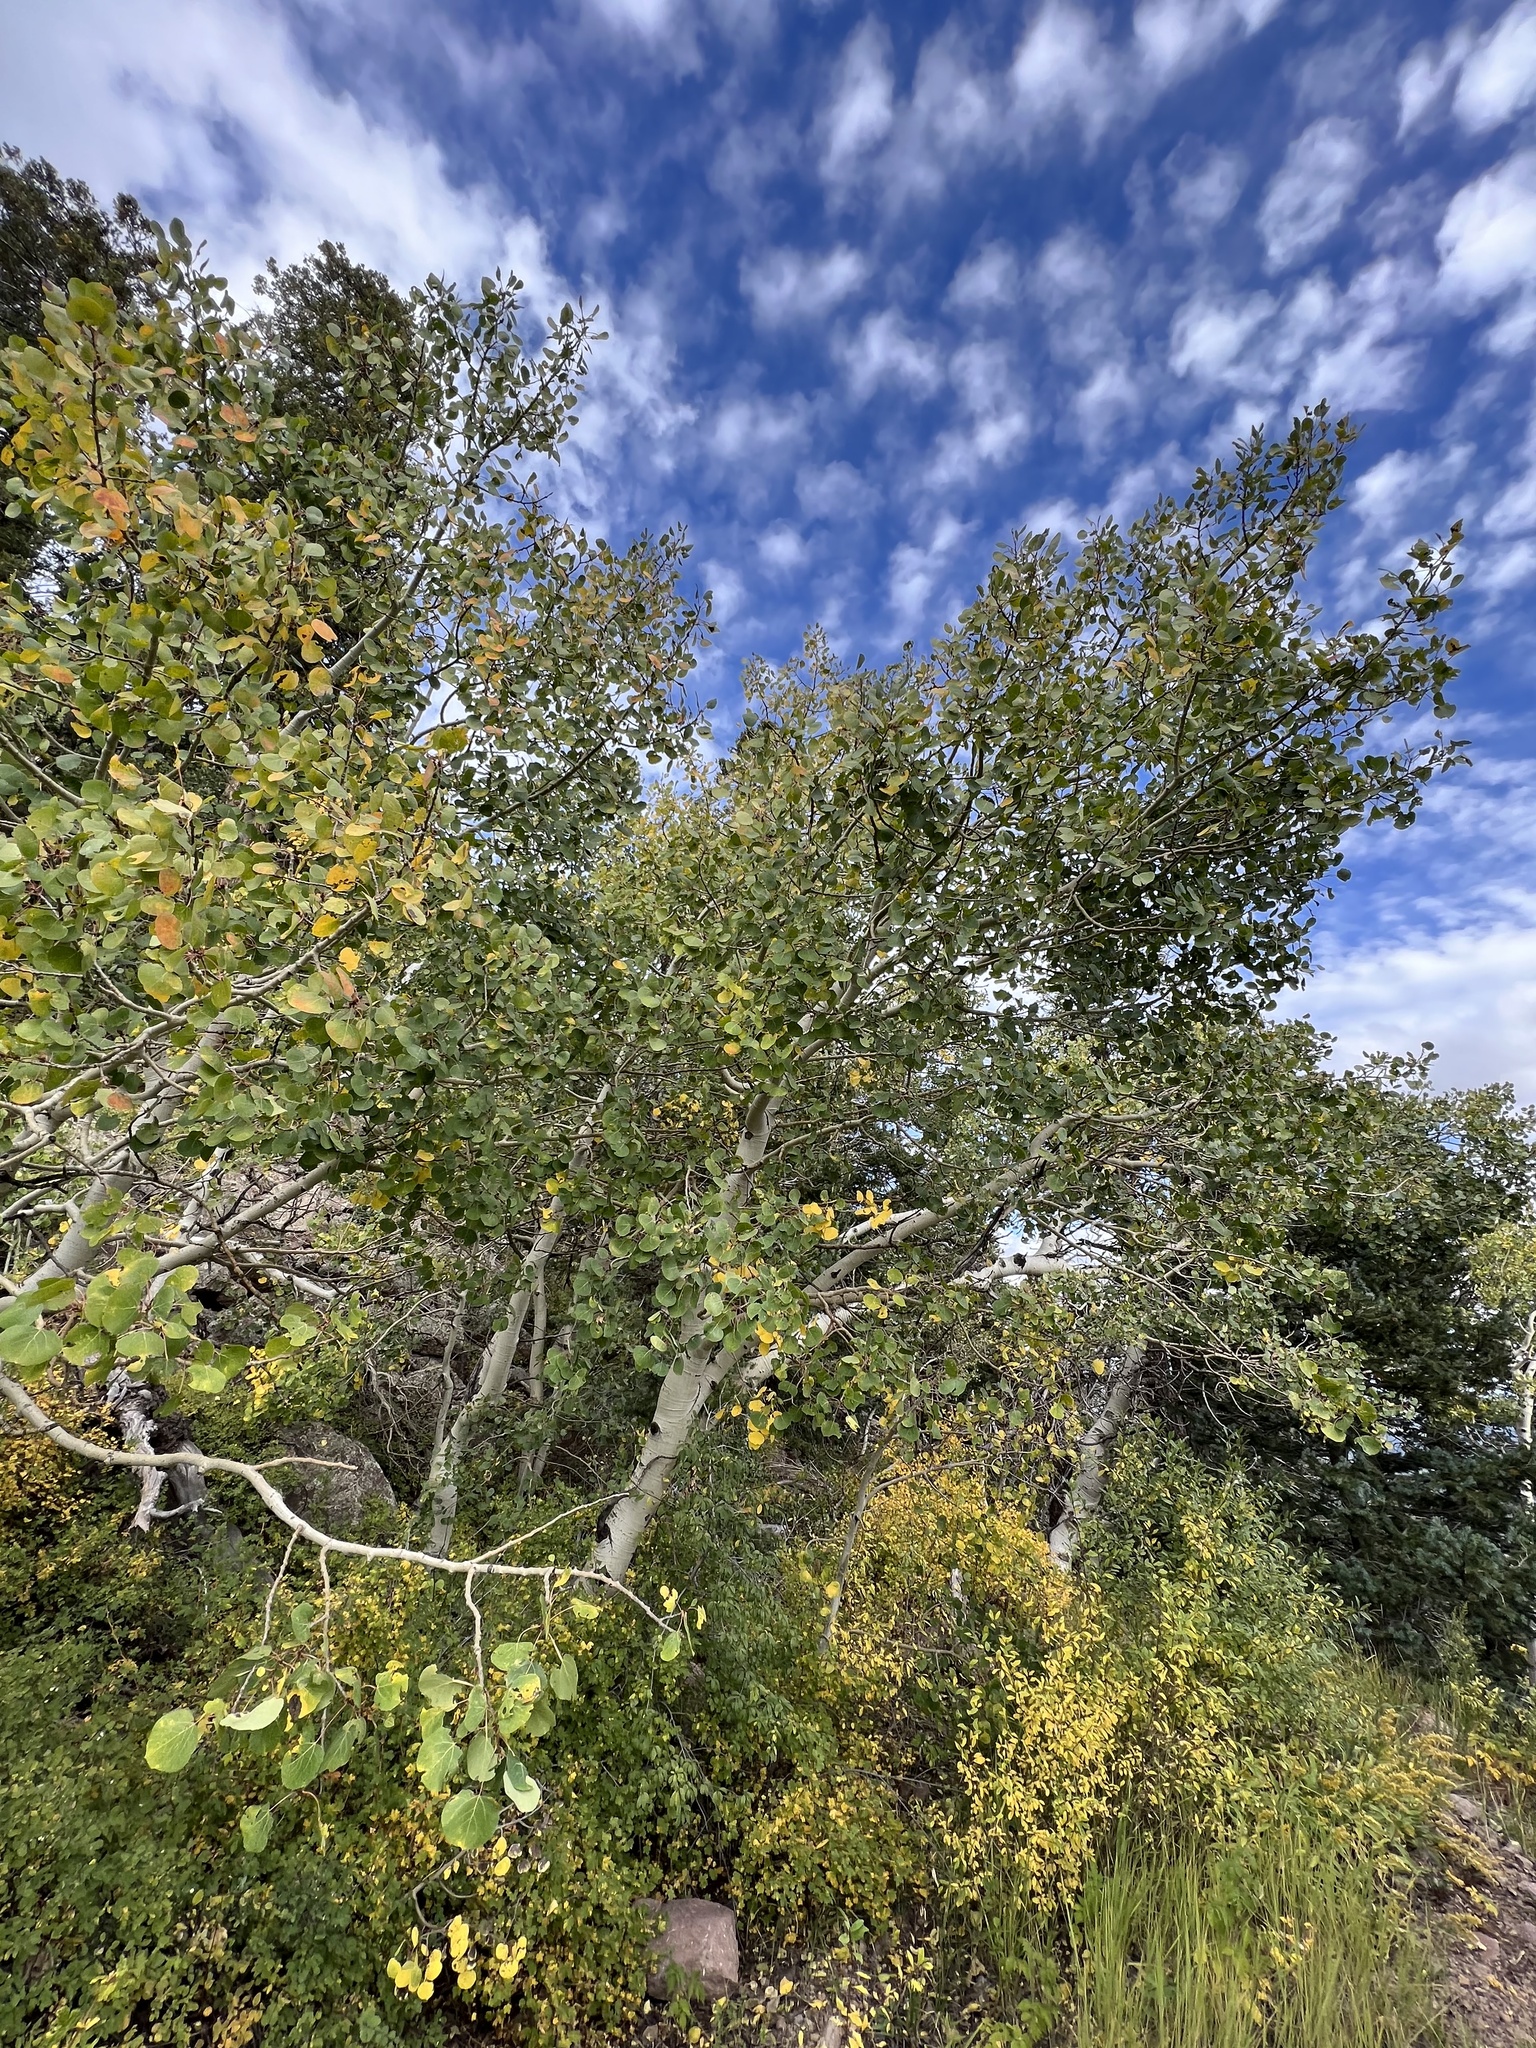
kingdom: Plantae
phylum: Tracheophyta
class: Magnoliopsida
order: Malpighiales
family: Salicaceae
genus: Populus
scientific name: Populus tremuloides
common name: Quaking aspen
